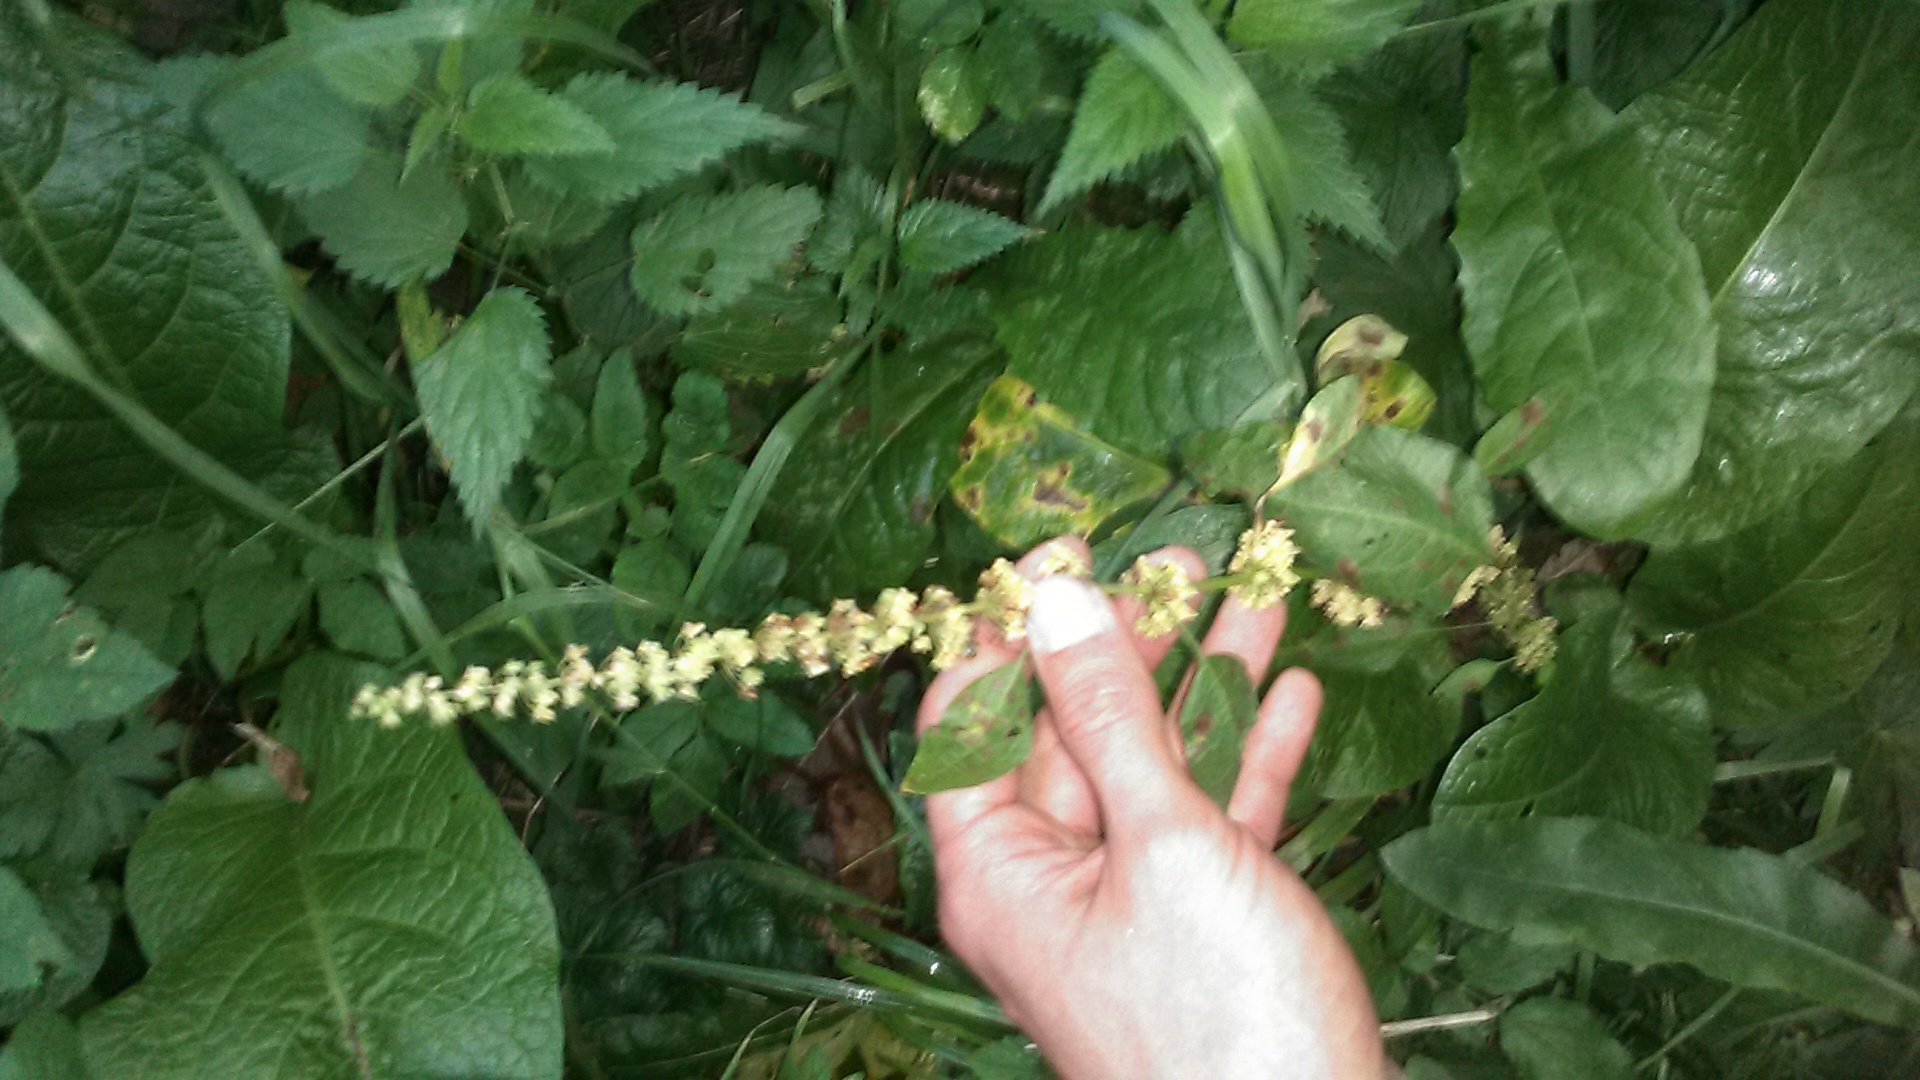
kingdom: Plantae
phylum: Tracheophyta
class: Magnoliopsida
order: Caryophyllales
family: Polygonaceae
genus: Rumex
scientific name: Rumex obtusifolius
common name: Bitter dock
